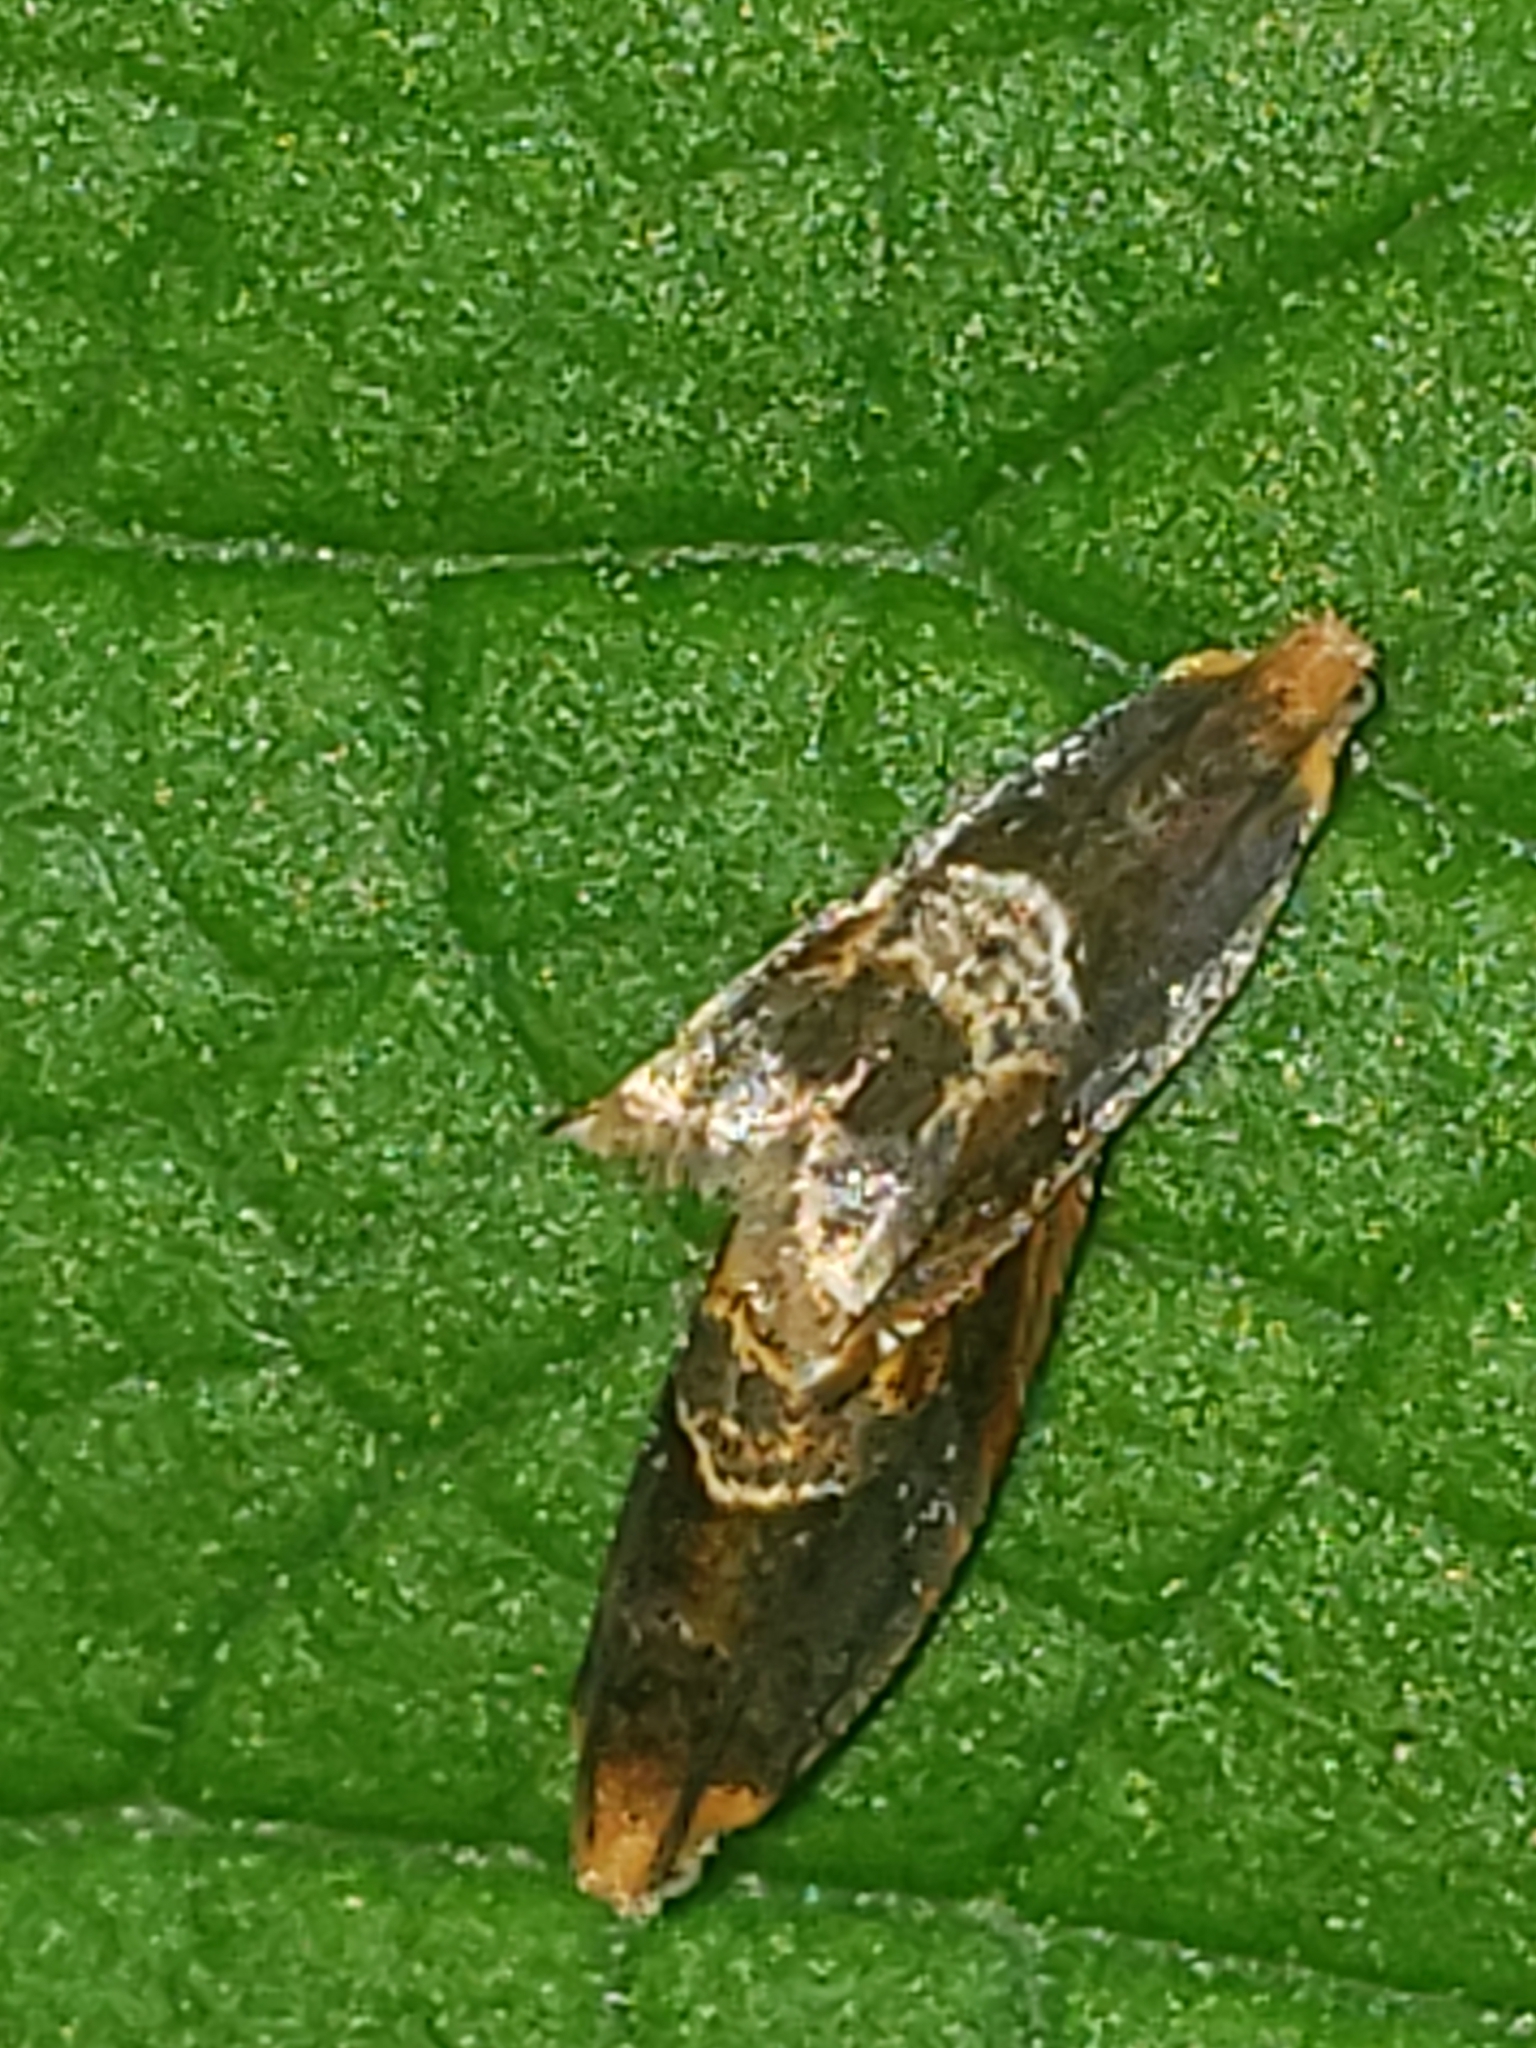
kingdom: Animalia
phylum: Arthropoda
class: Insecta
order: Lepidoptera
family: Tortricidae
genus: Ancylis
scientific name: Ancylis muricana
